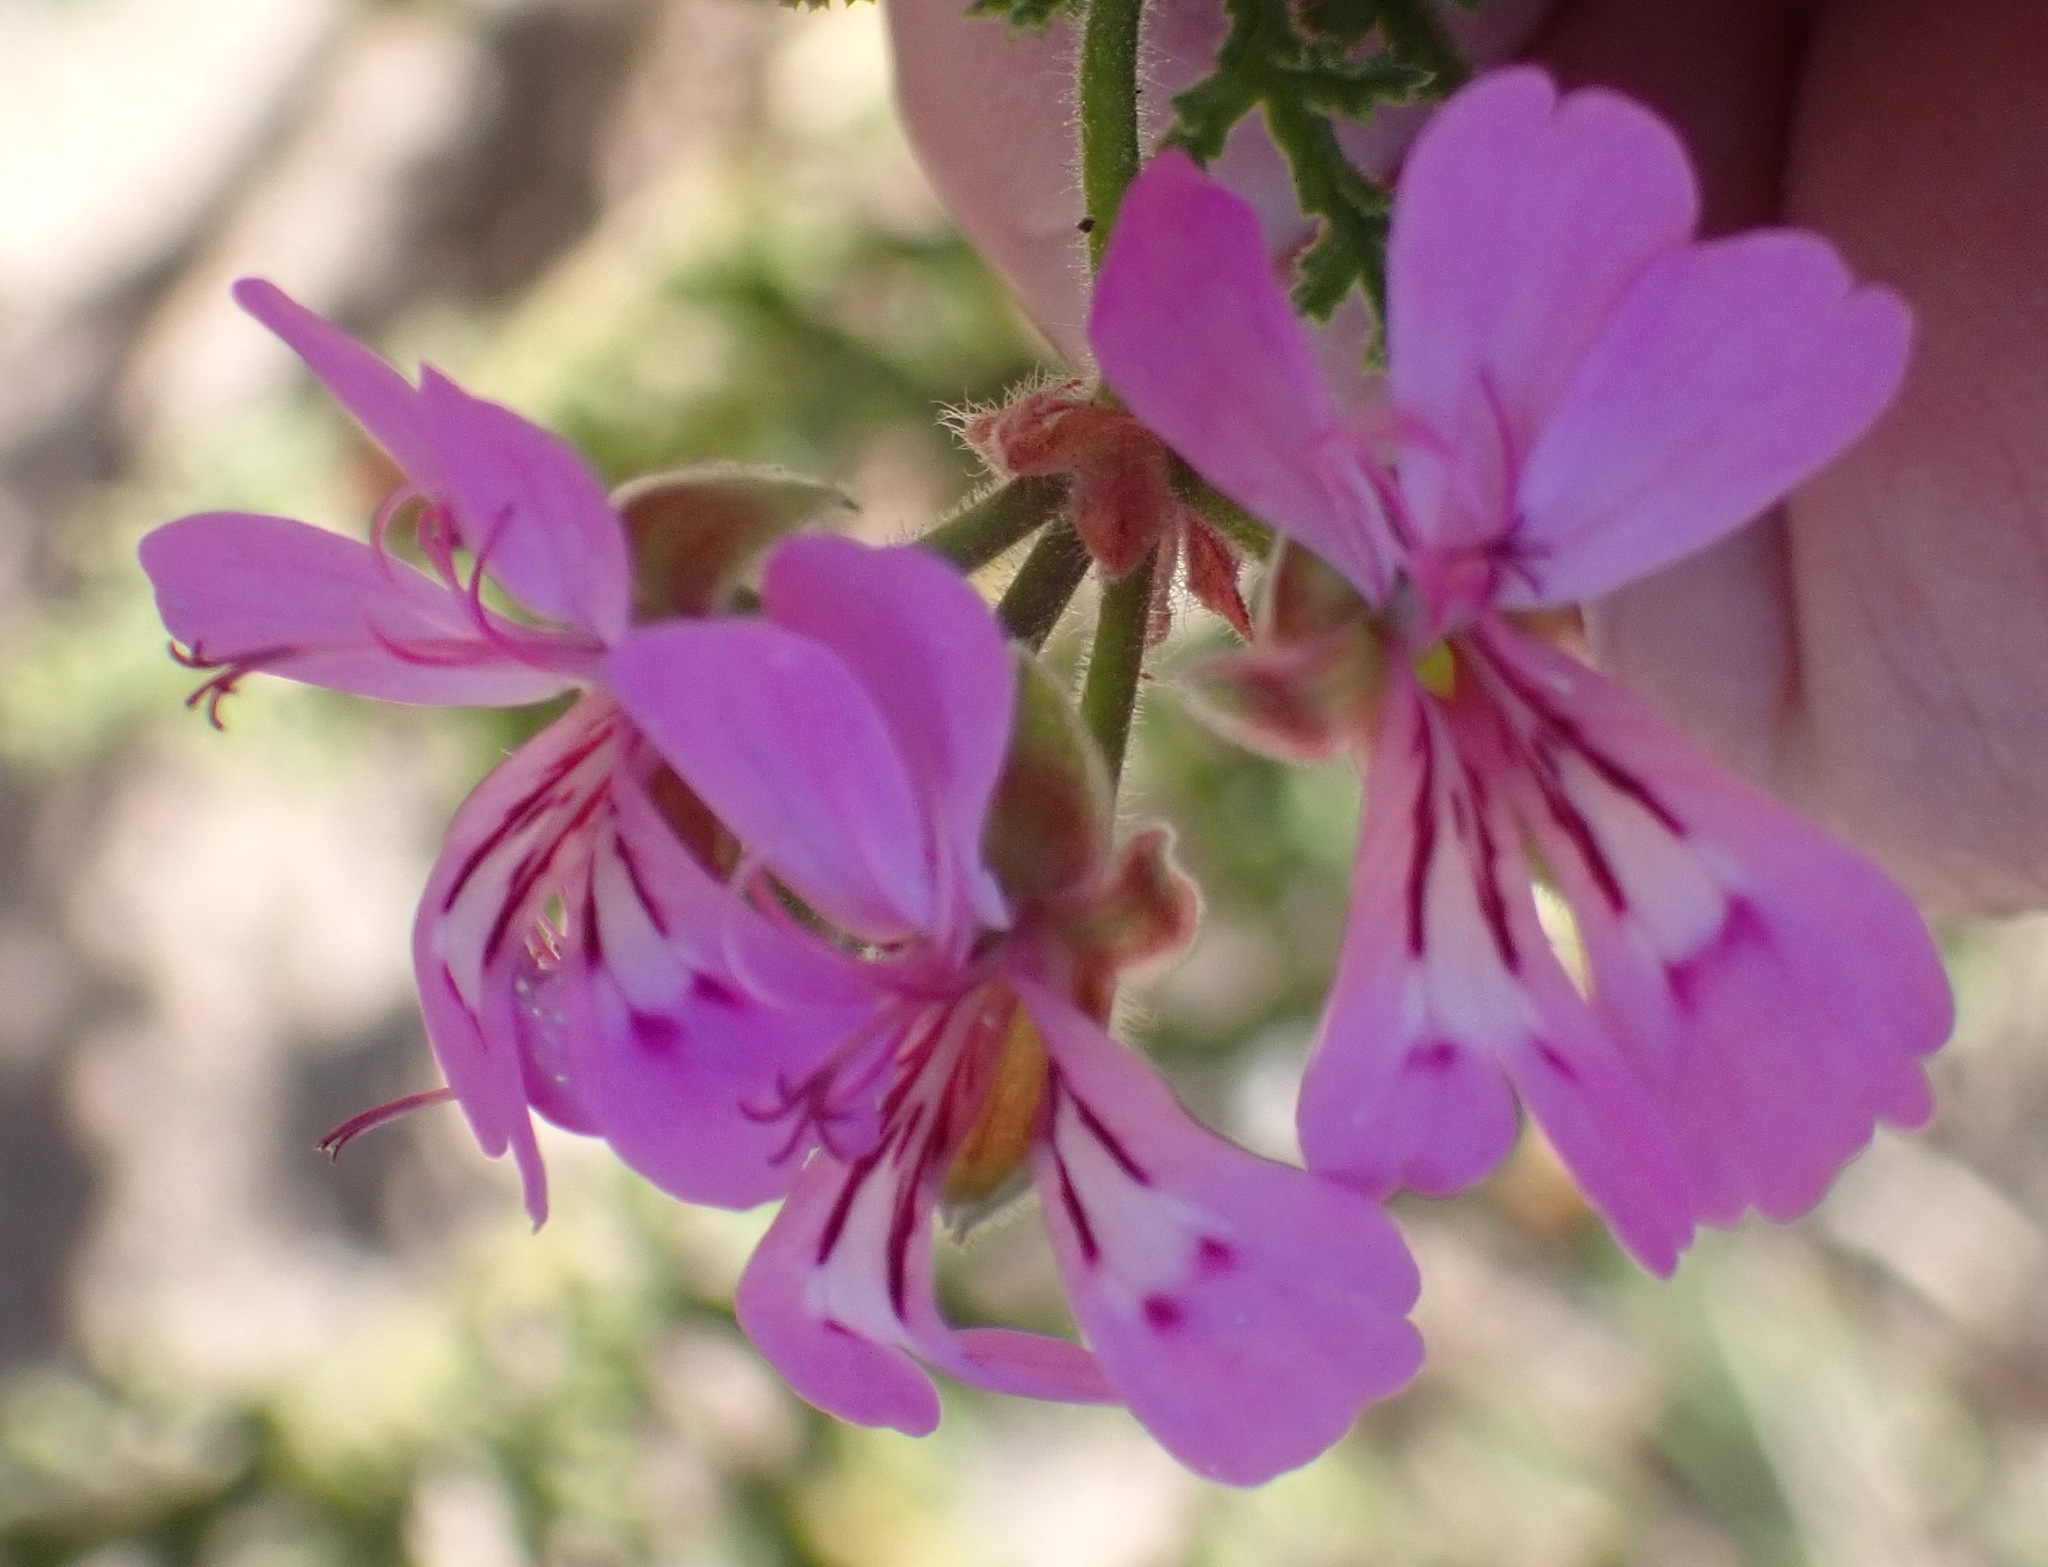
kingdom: Plantae
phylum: Tracheophyta
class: Magnoliopsida
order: Geraniales
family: Geraniaceae
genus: Pelargonium
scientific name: Pelargonium glutinosum
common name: Pheasant-foot geranium
